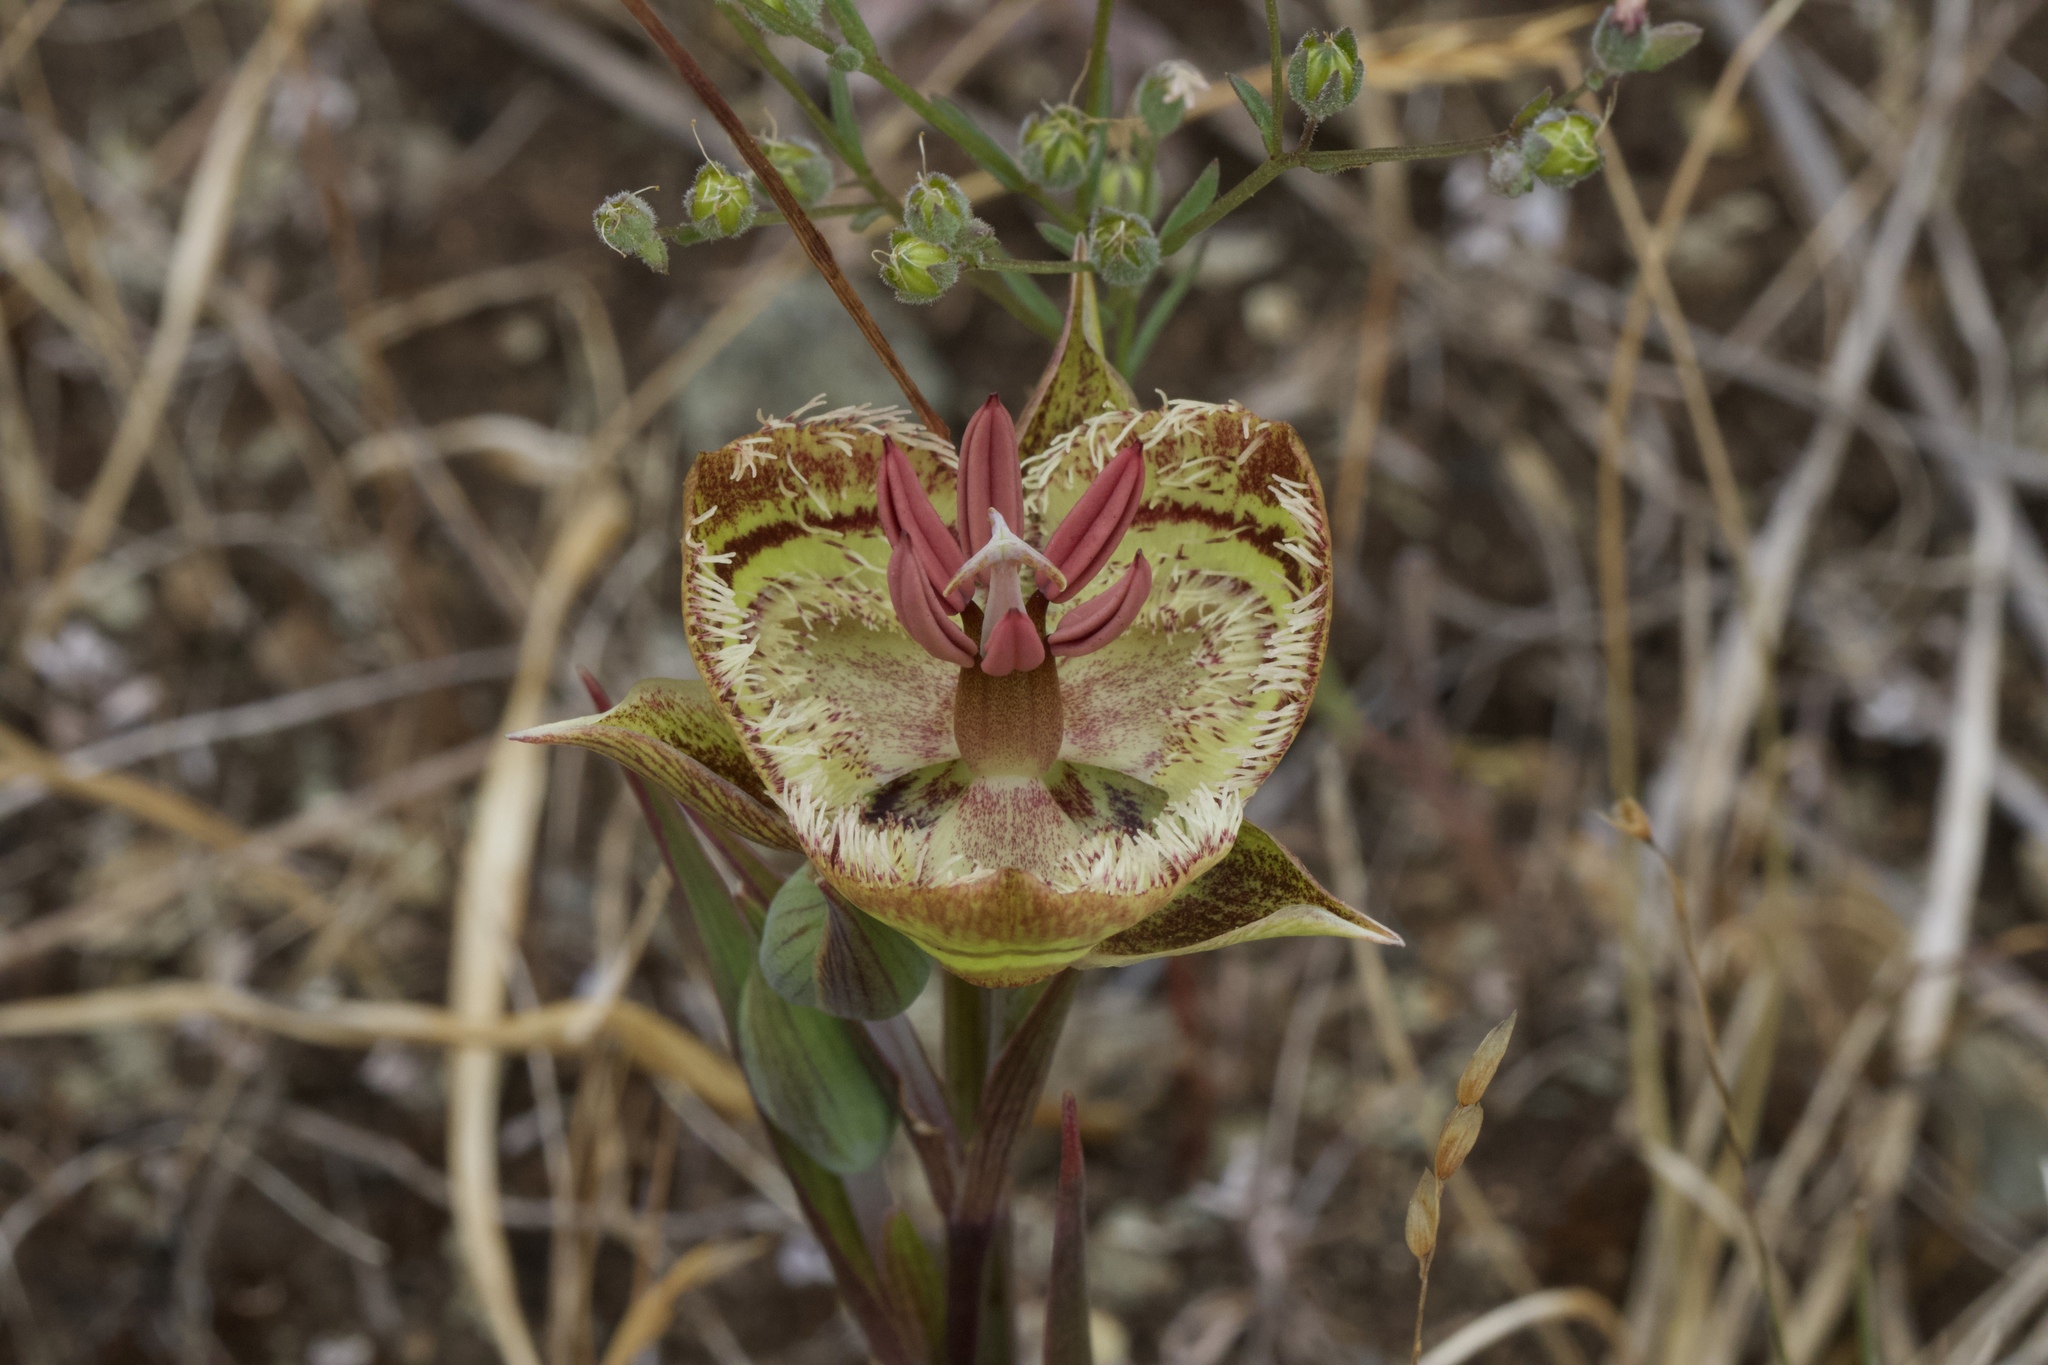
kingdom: Plantae
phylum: Tracheophyta
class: Liliopsida
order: Liliales
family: Liliaceae
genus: Calochortus
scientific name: Calochortus tiburonensis
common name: Tiburon mariposa-lily
